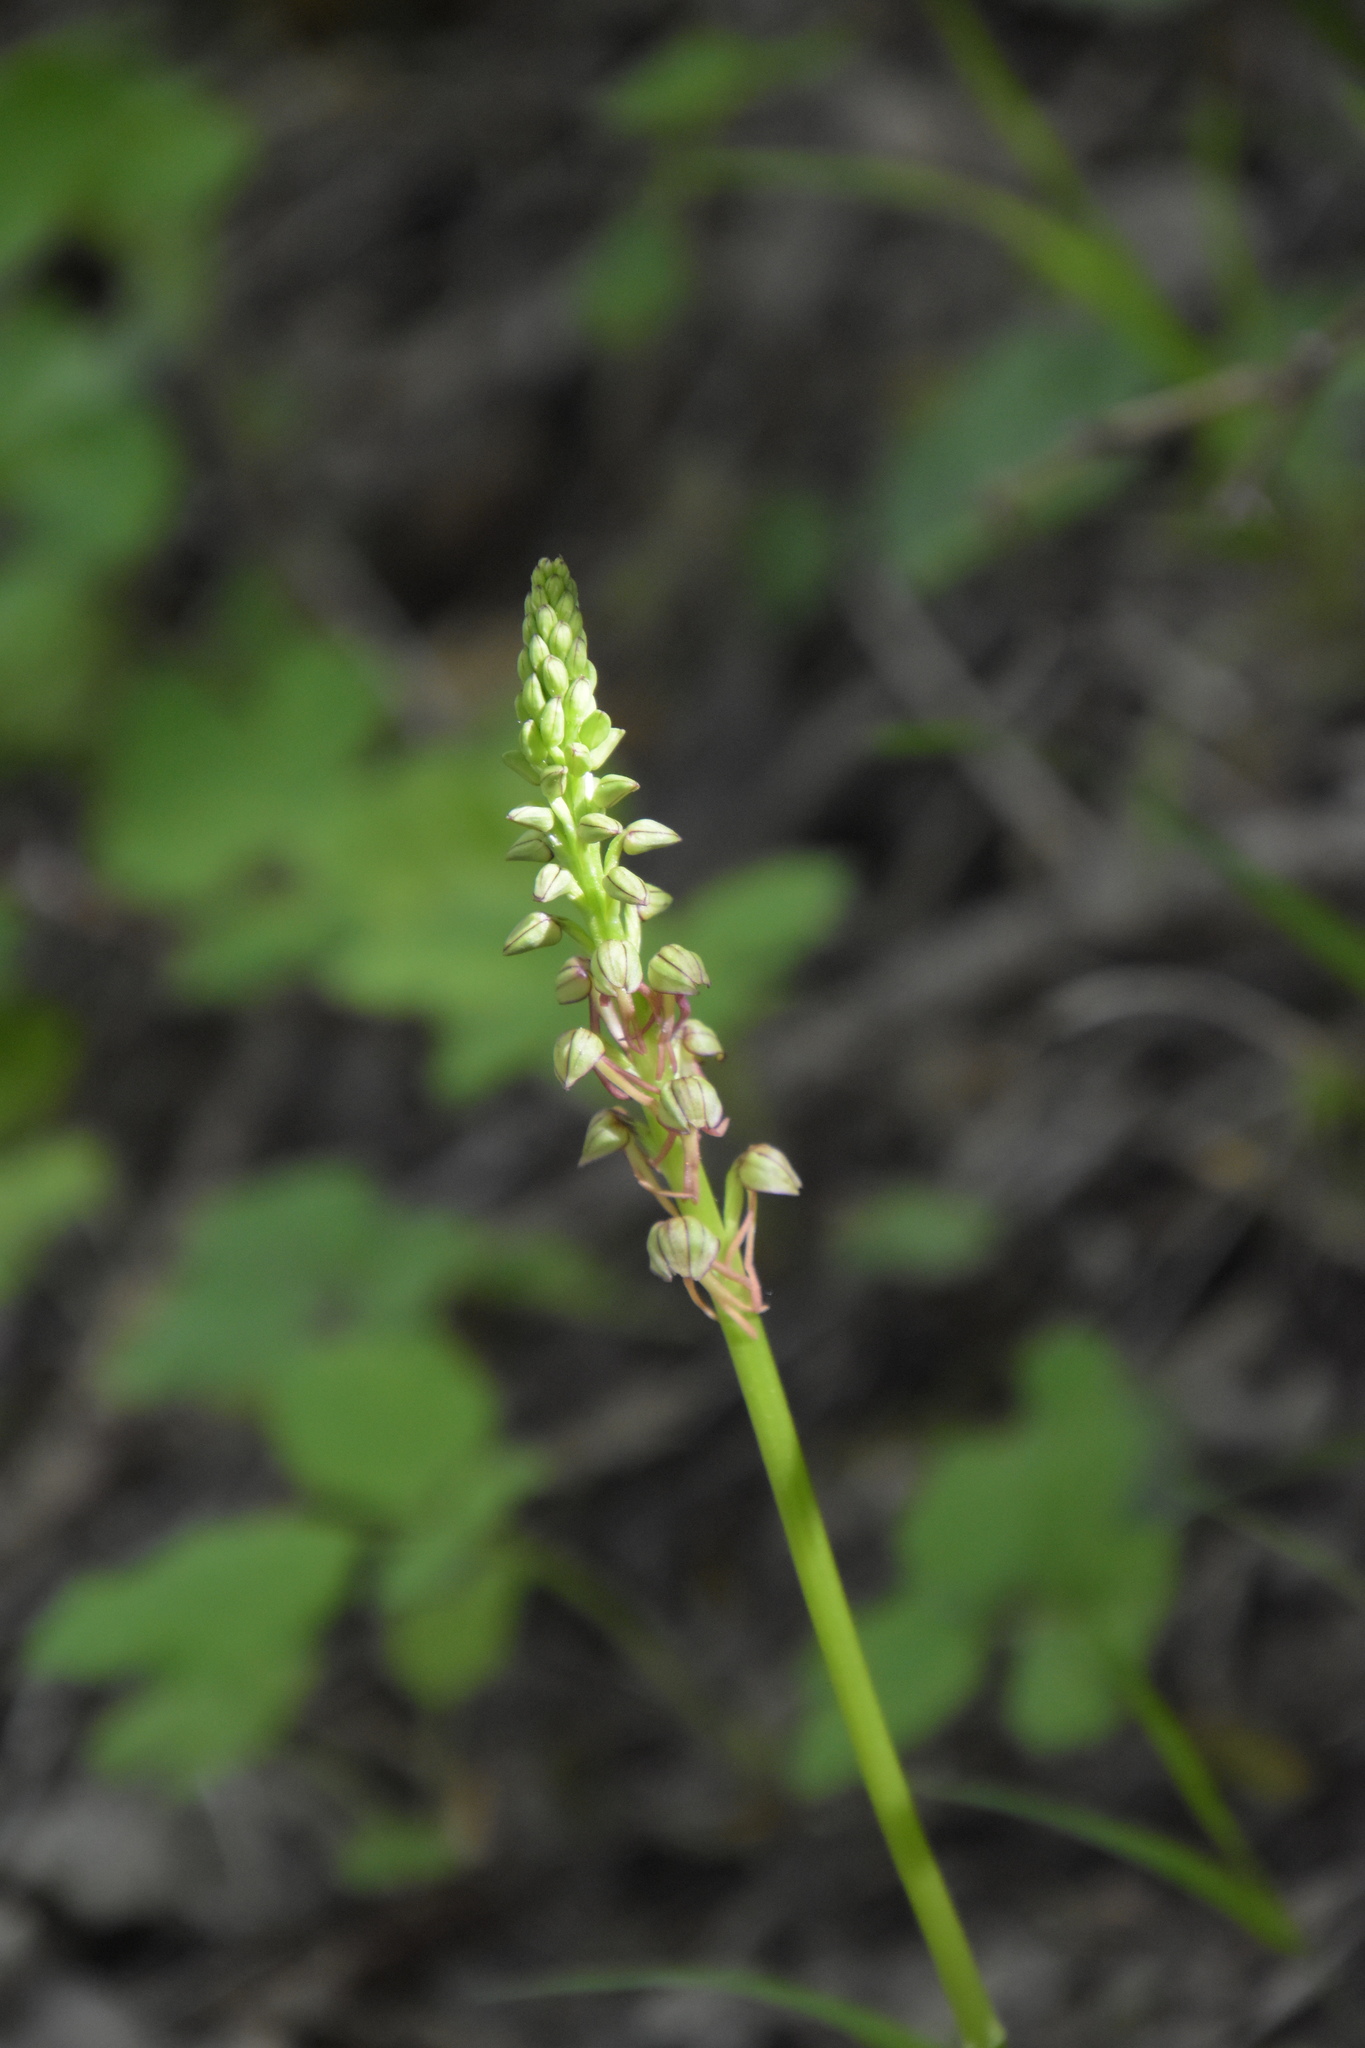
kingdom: Plantae
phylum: Tracheophyta
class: Liliopsida
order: Asparagales
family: Orchidaceae
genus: Orchis
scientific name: Orchis anthropophora
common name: Man orchid
